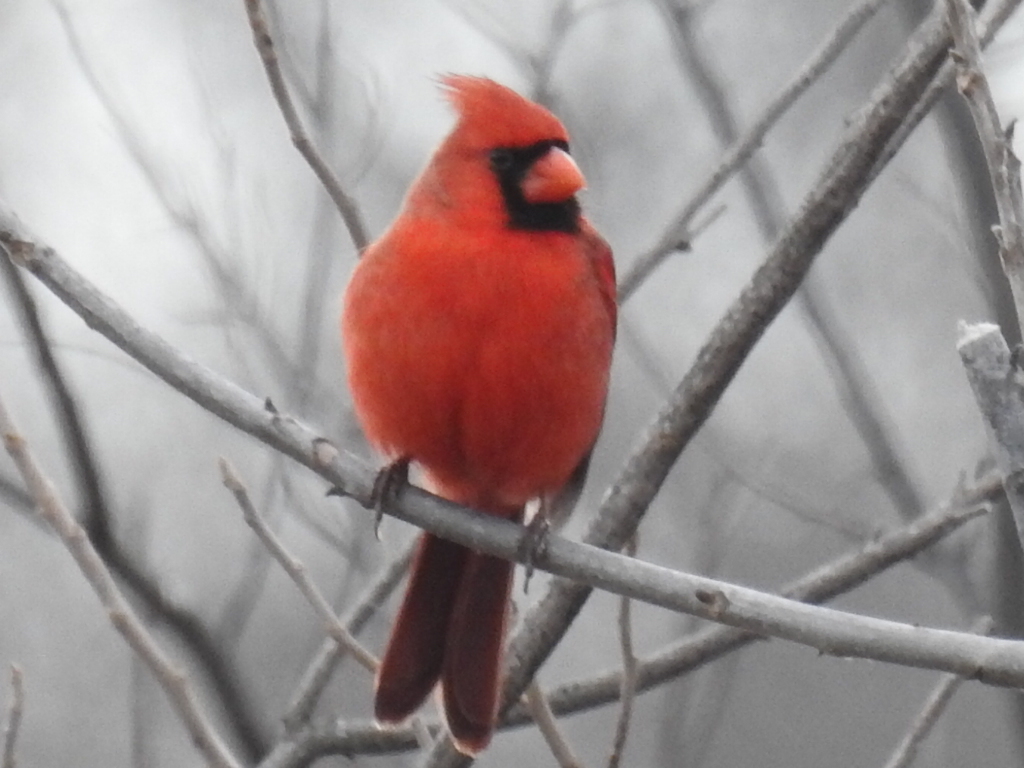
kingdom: Animalia
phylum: Chordata
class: Aves
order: Passeriformes
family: Cardinalidae
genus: Cardinalis
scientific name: Cardinalis cardinalis
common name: Northern cardinal
